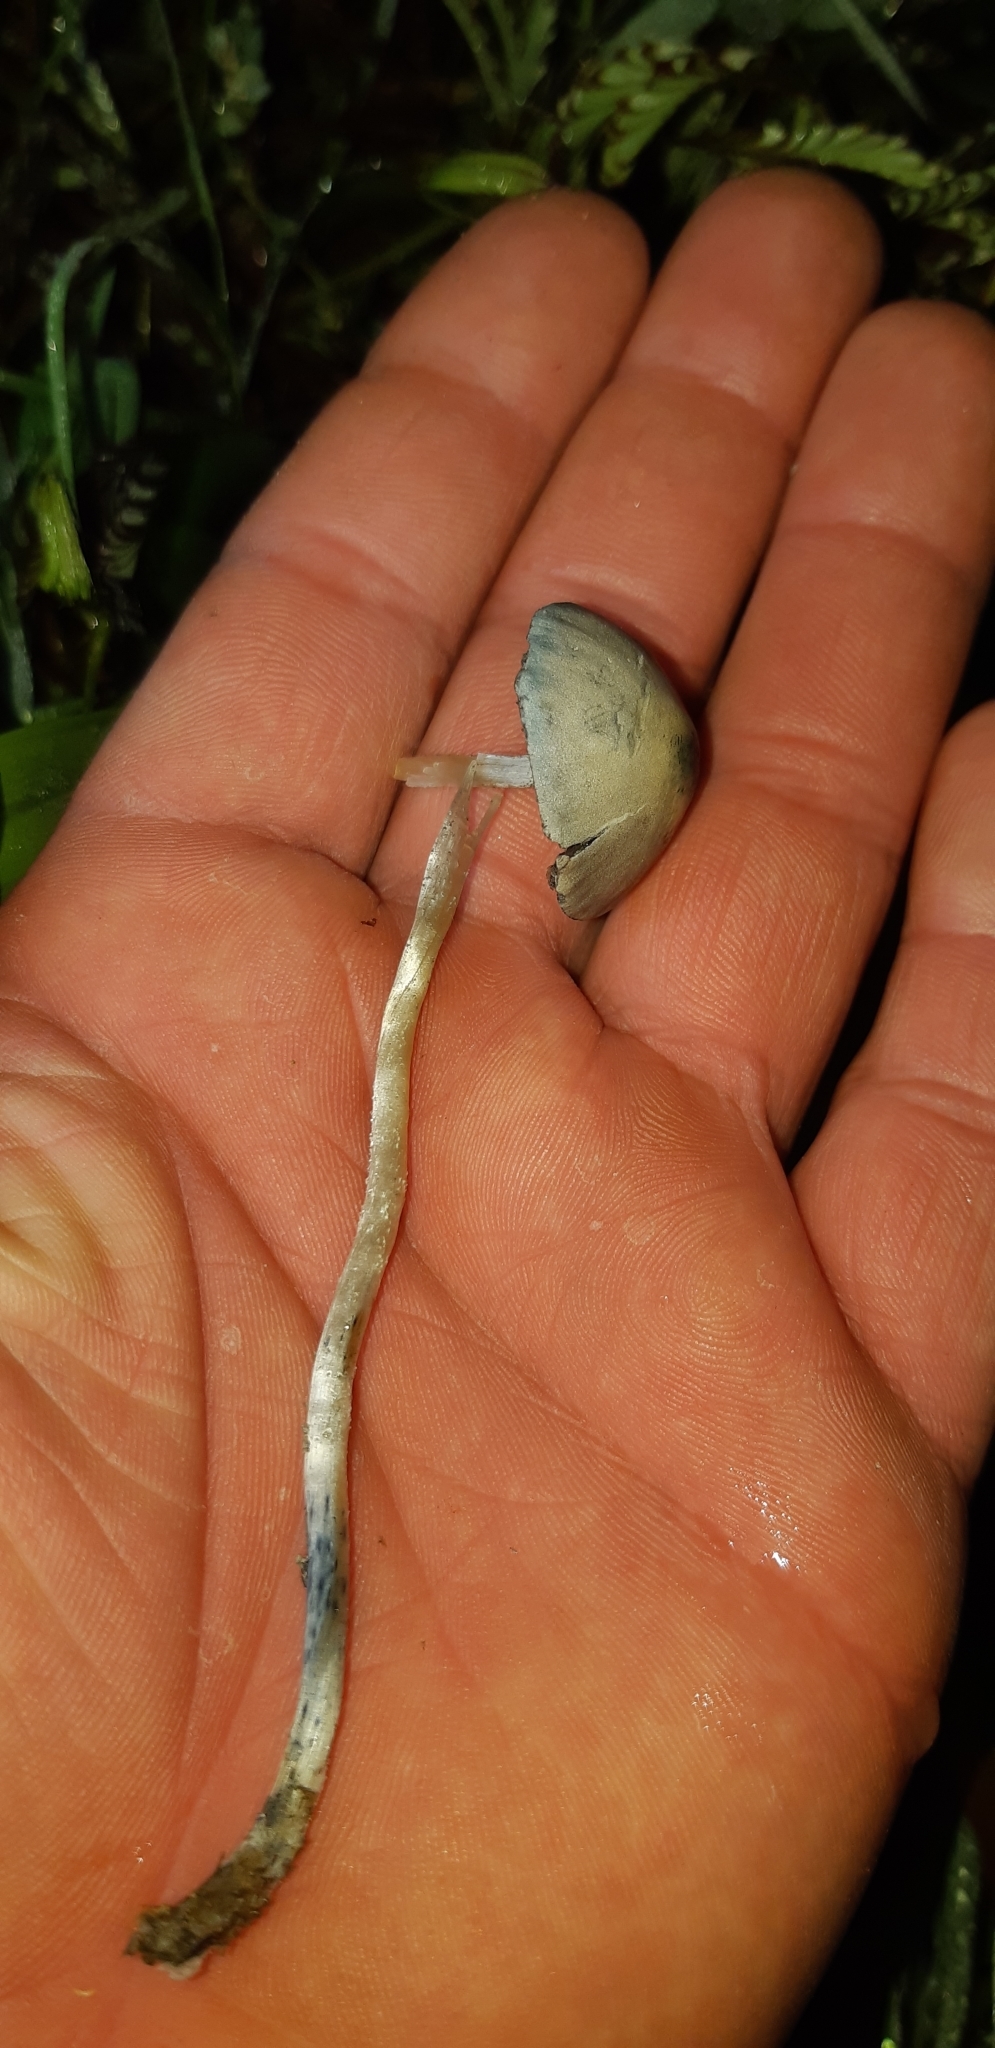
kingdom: Fungi
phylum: Basidiomycota
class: Agaricomycetes
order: Agaricales
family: Bolbitiaceae
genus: Panaeolus
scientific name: Panaeolus cyanescens
